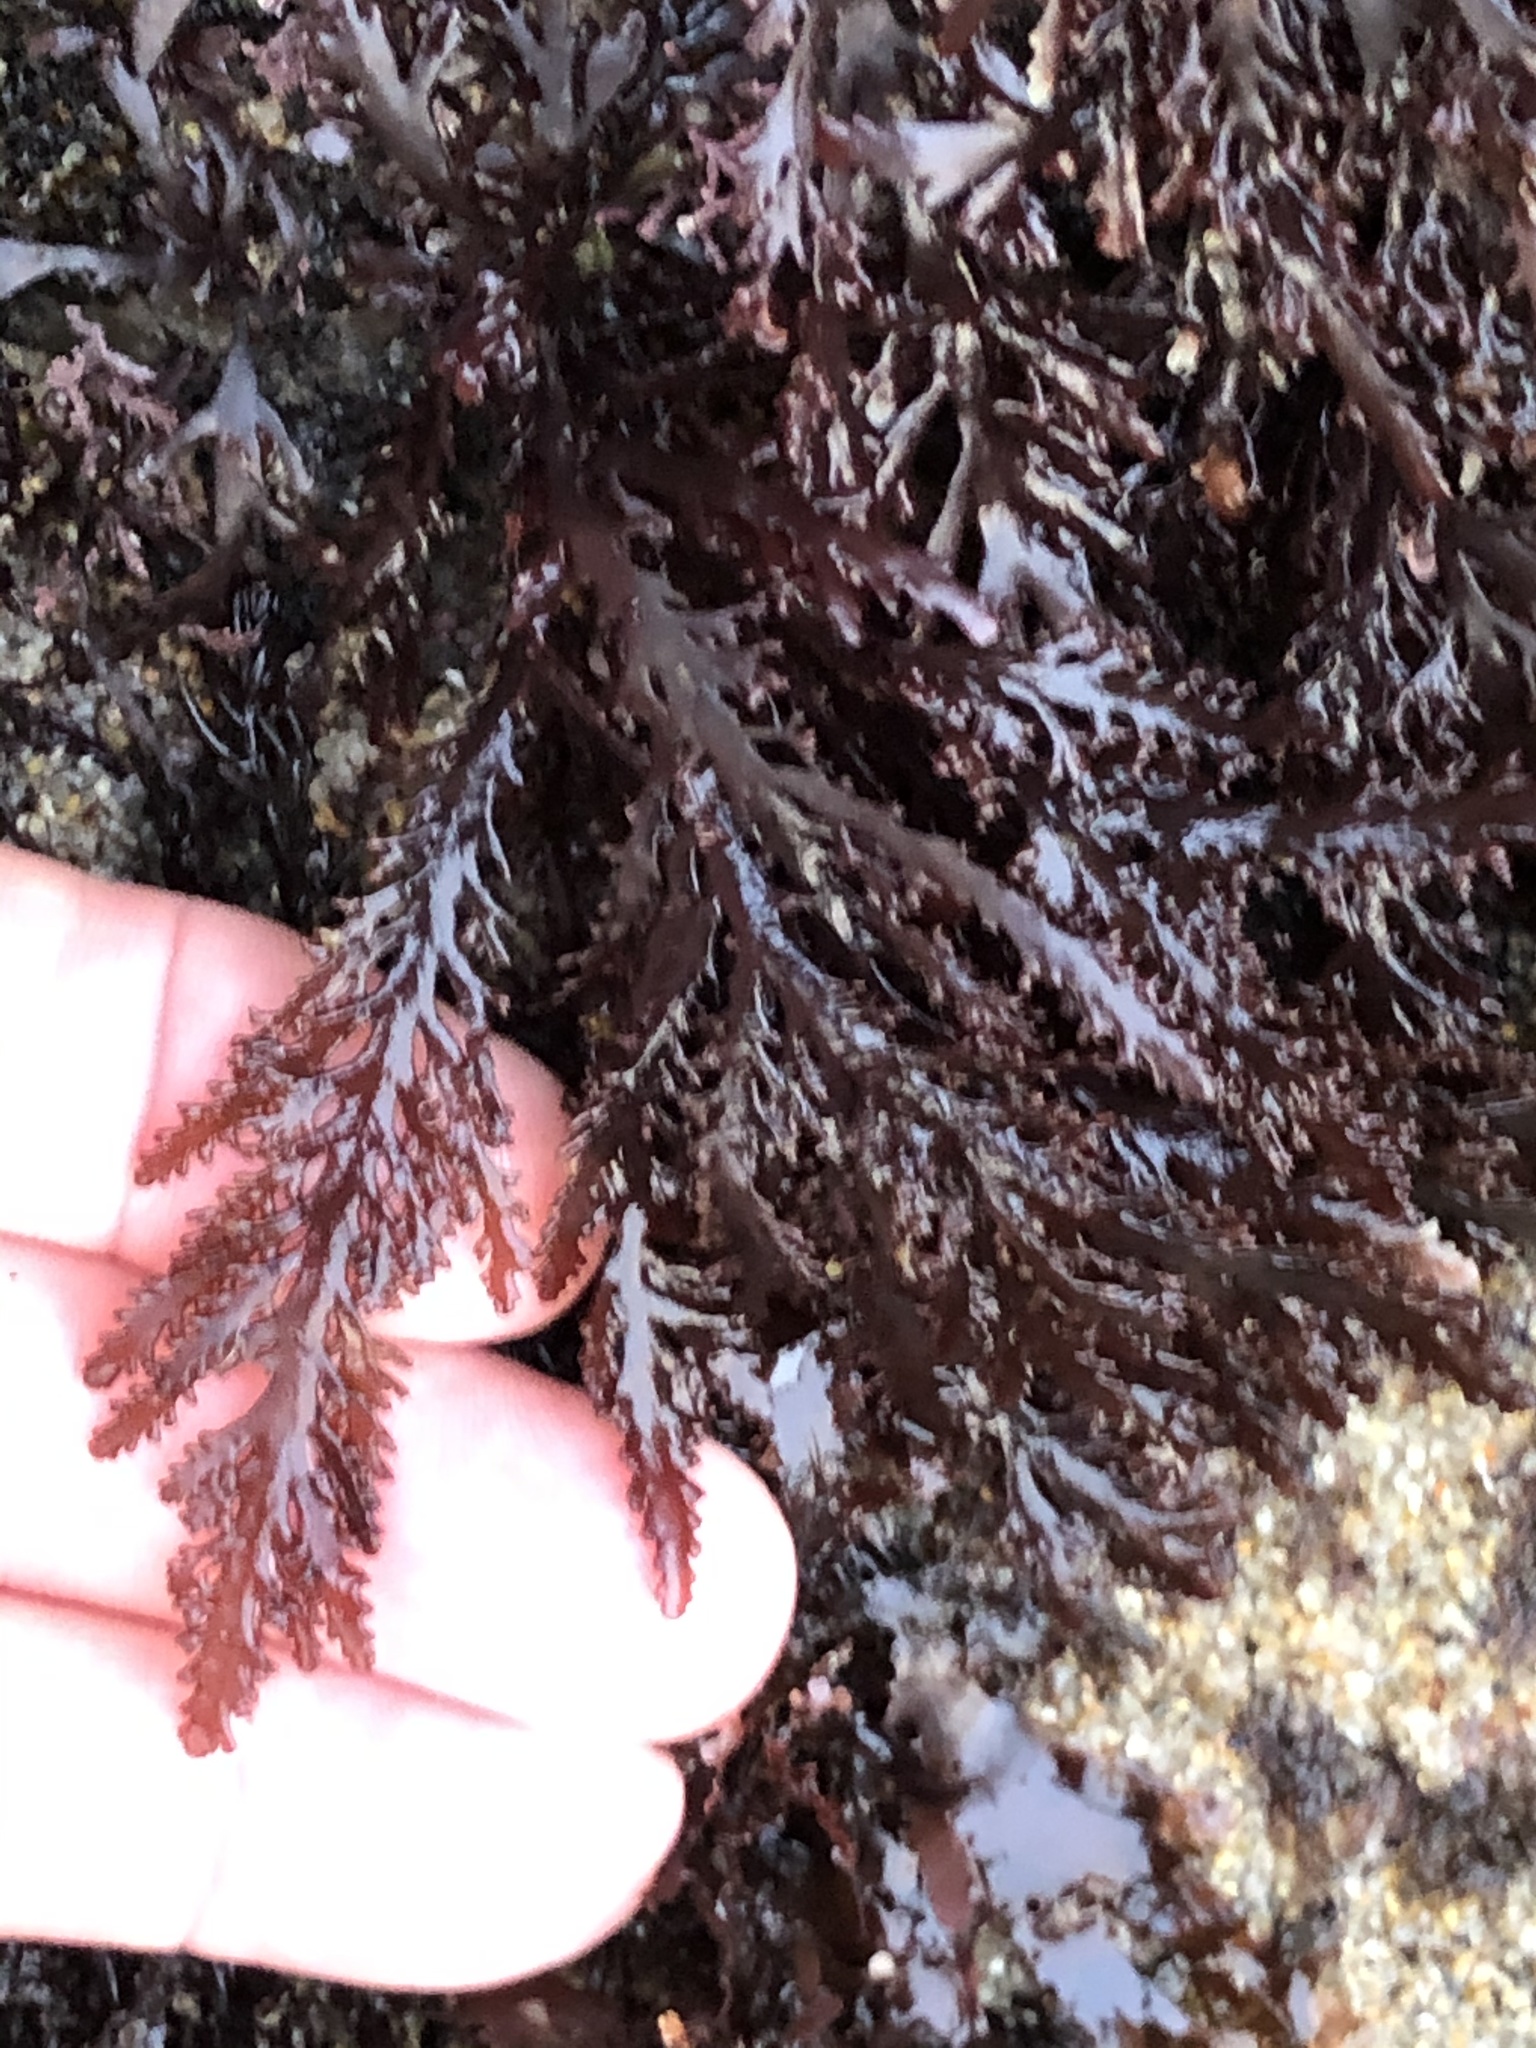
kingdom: Plantae
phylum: Rhodophyta
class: Florideophyceae
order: Ceramiales
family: Rhodomelaceae
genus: Osmundea
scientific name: Osmundea spectabilis
